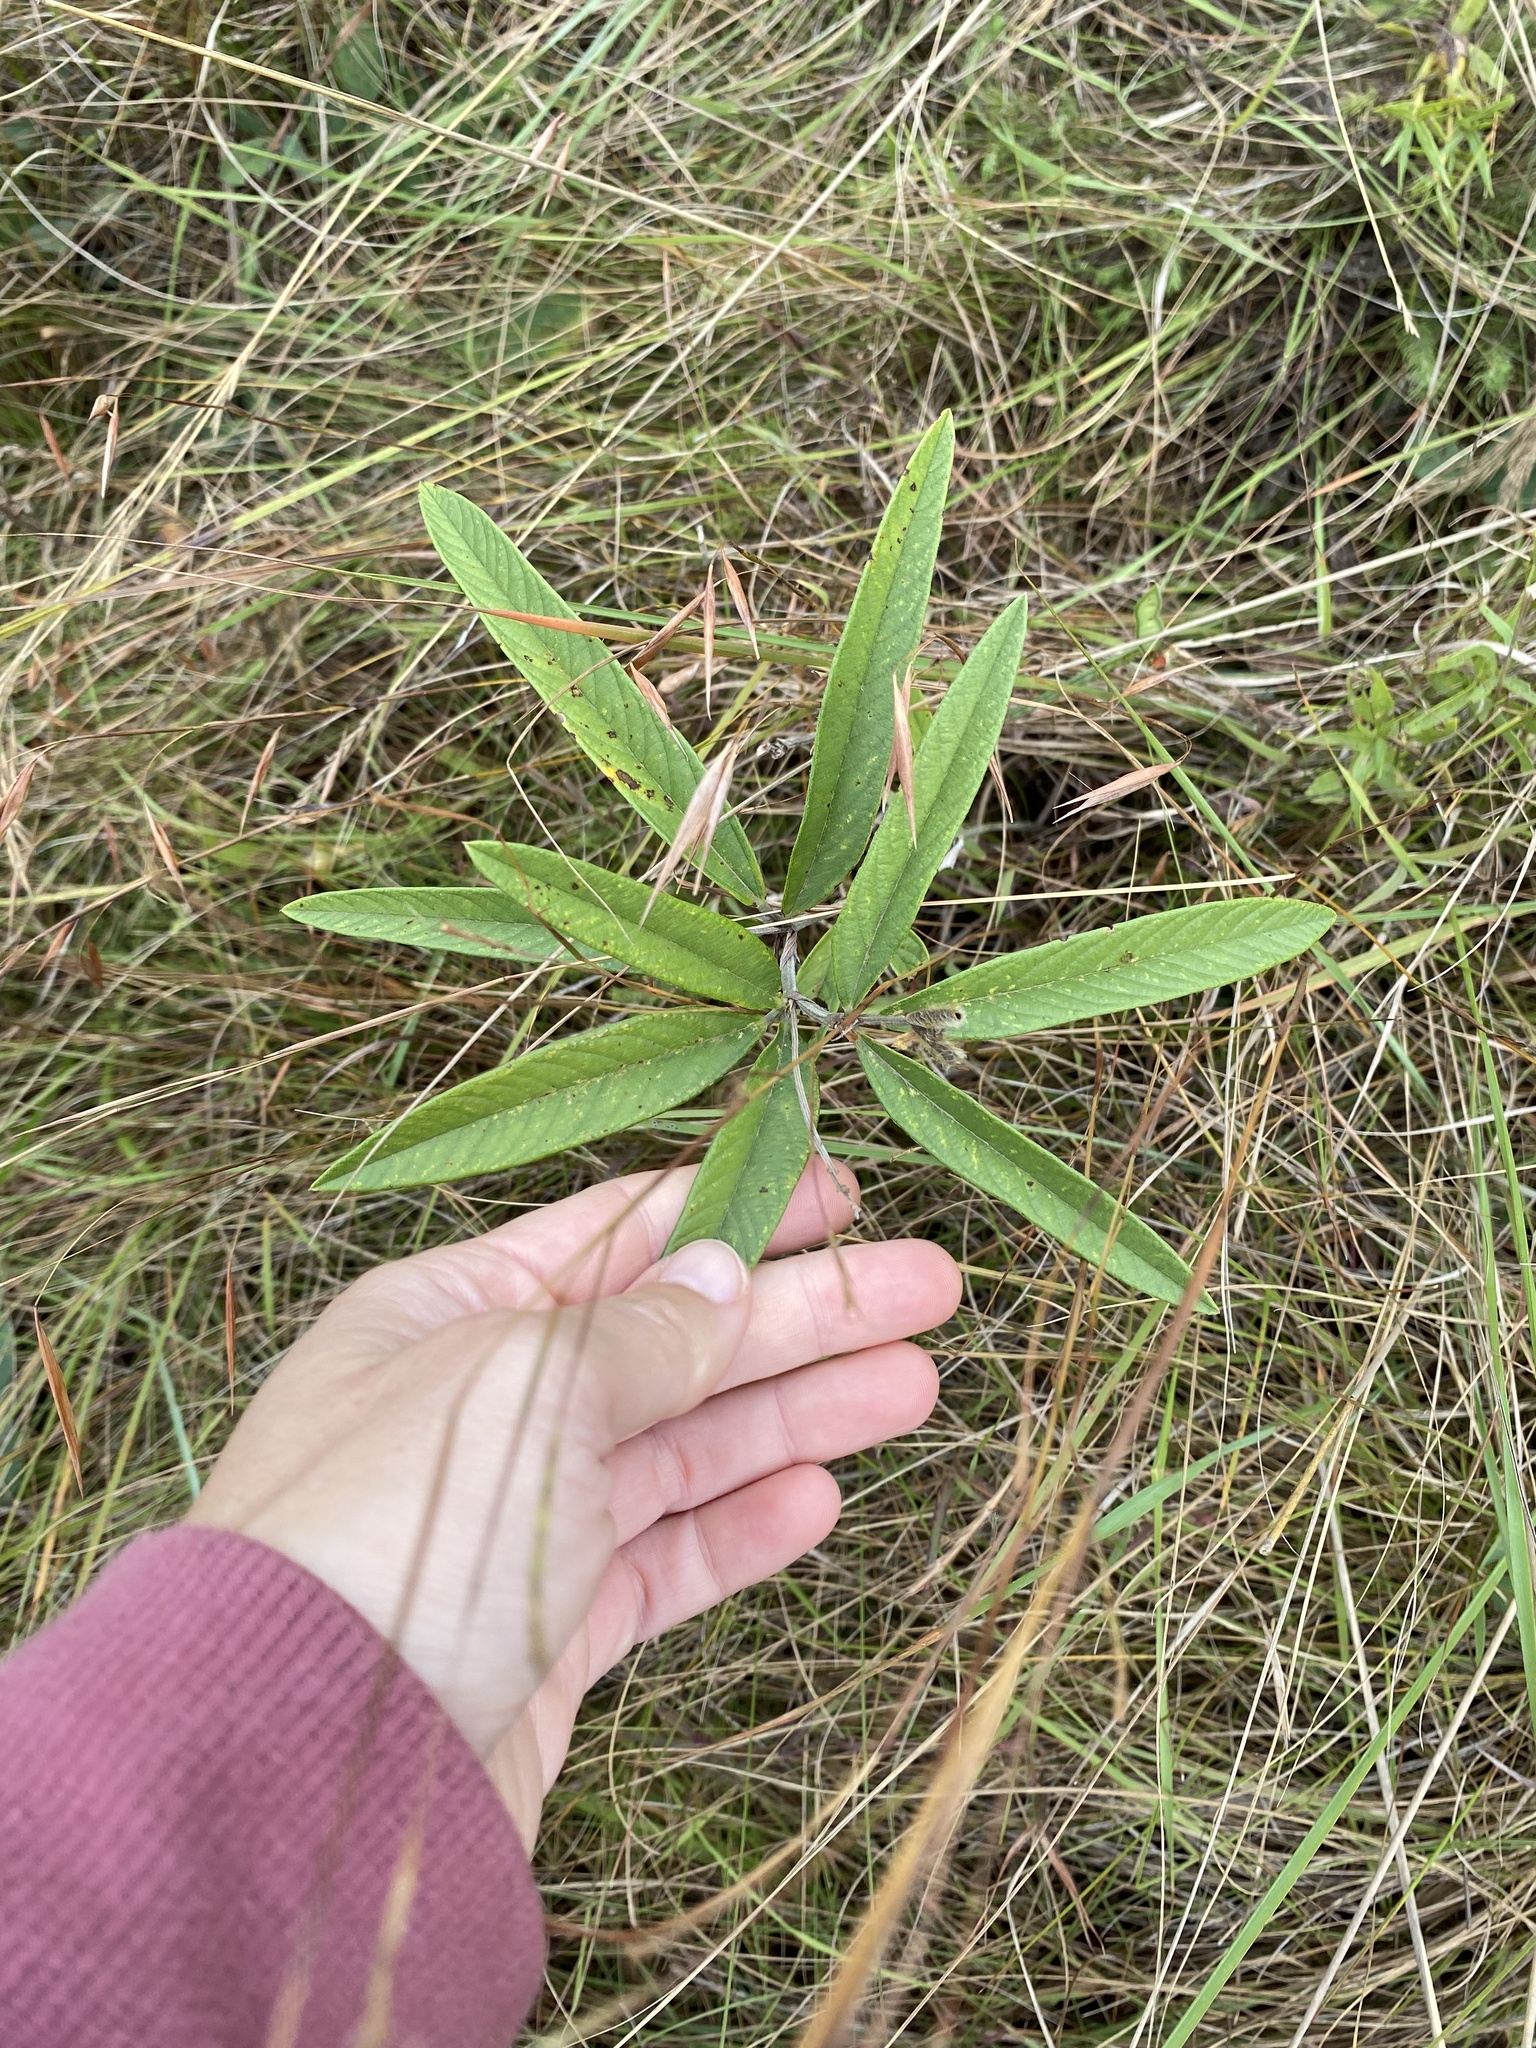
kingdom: Plantae
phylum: Tracheophyta
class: Magnoliopsida
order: Fabales
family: Fabaceae
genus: Eriosema
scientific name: Eriosema salignum
